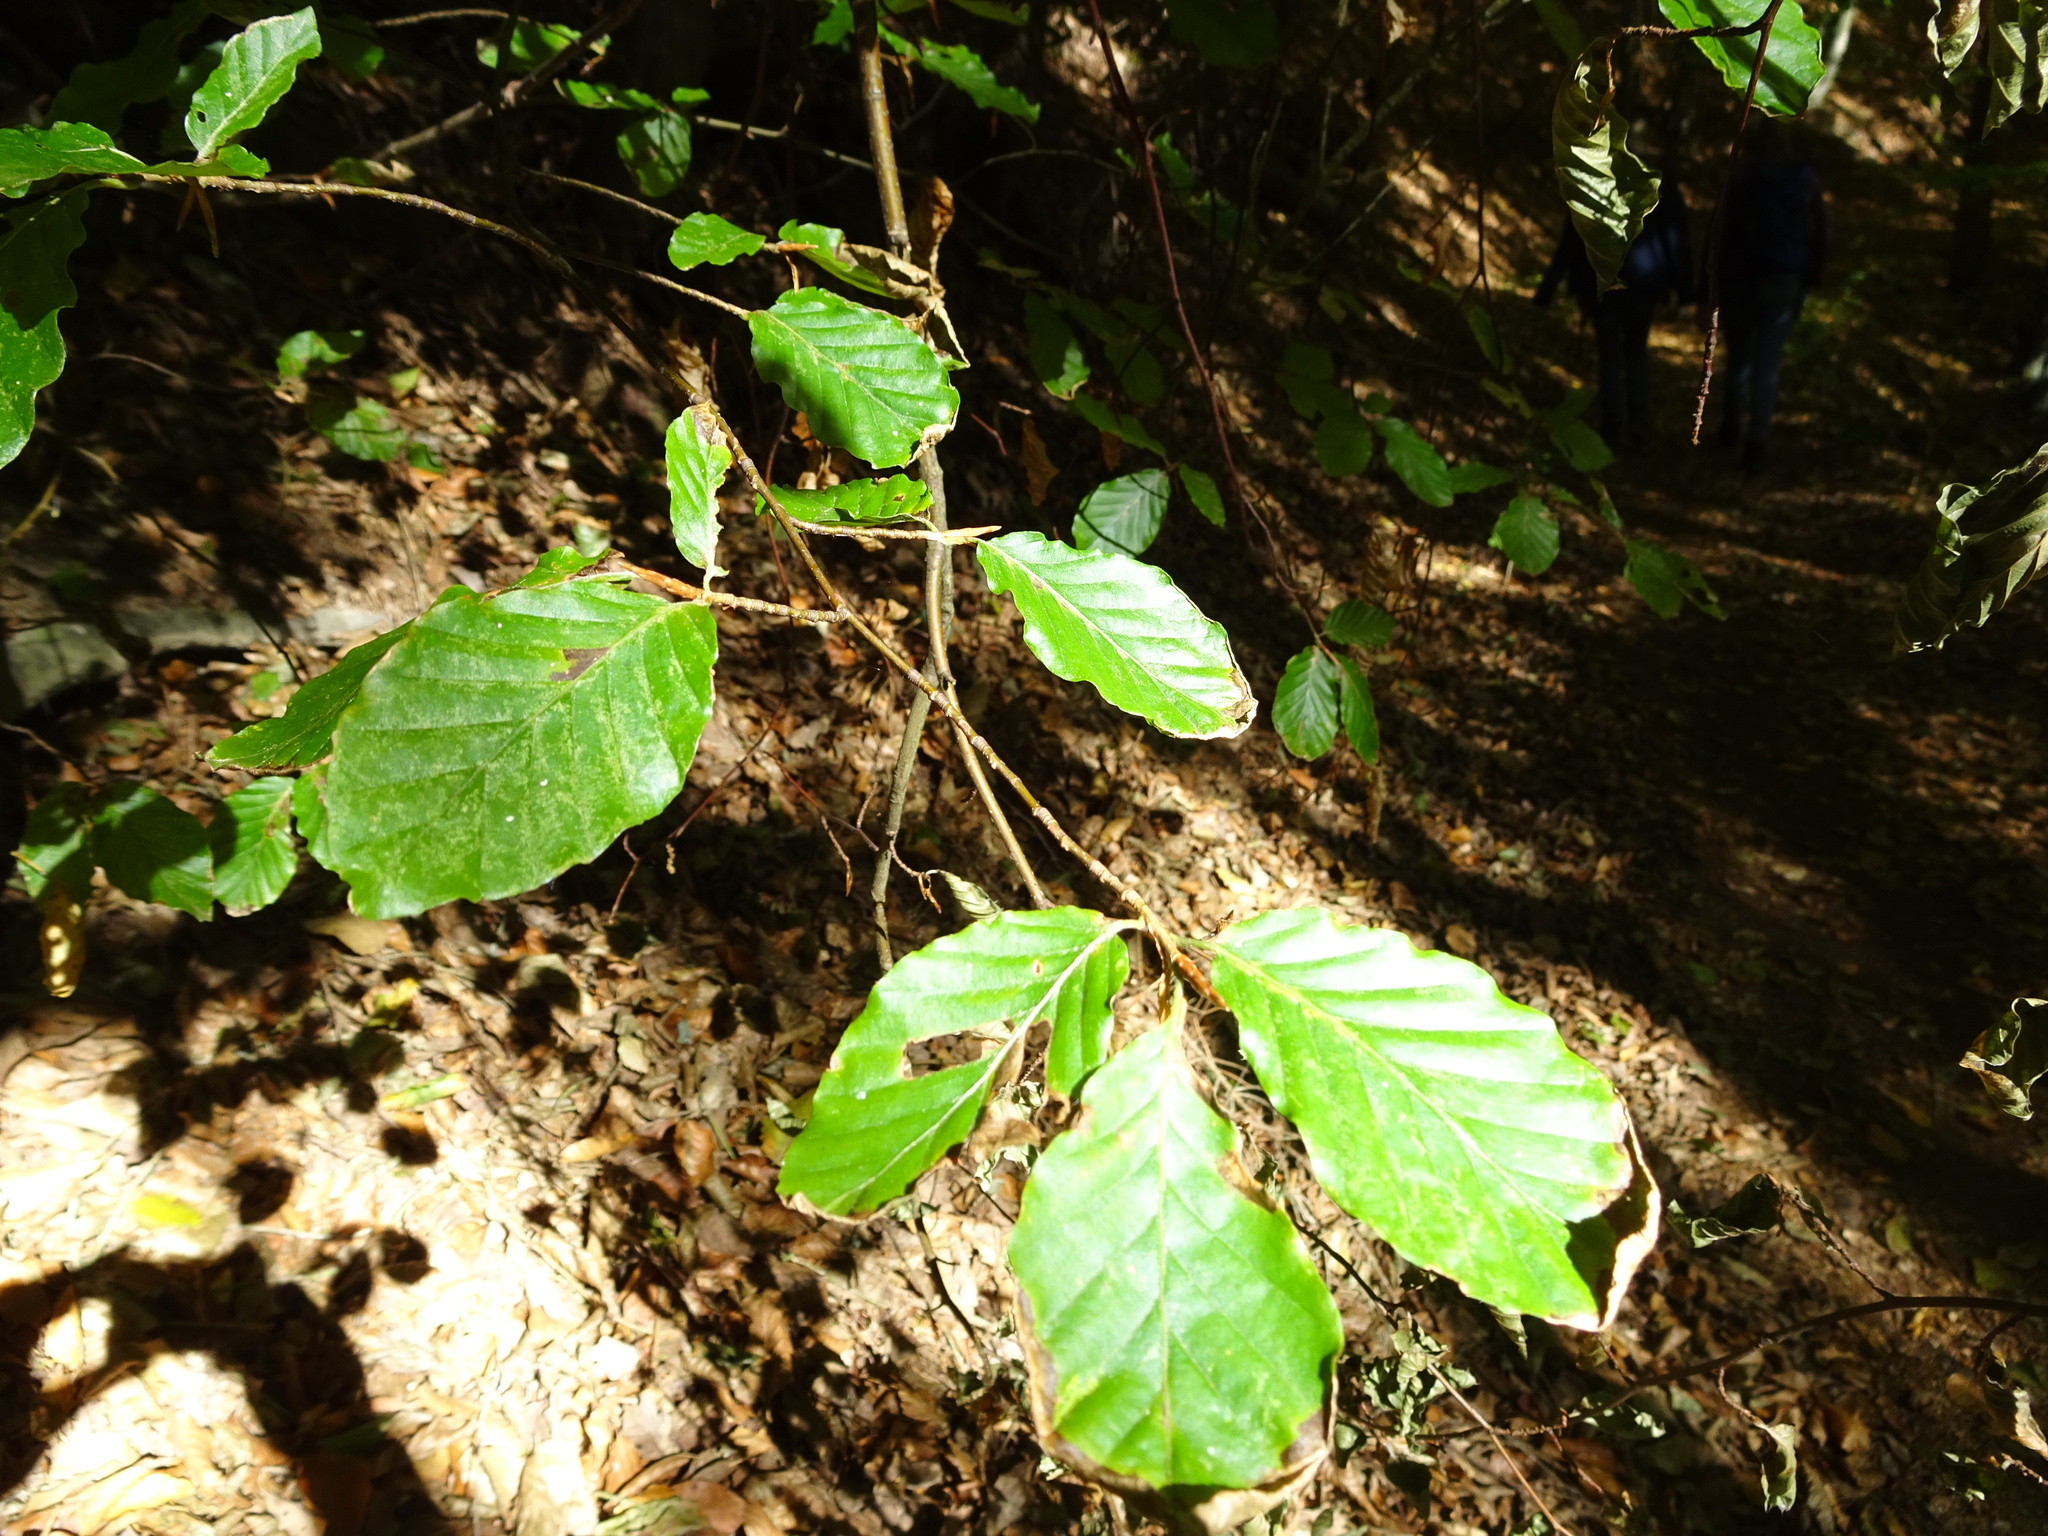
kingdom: Plantae
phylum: Tracheophyta
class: Magnoliopsida
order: Fagales
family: Fagaceae
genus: Fagus
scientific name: Fagus sylvatica
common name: Beech
